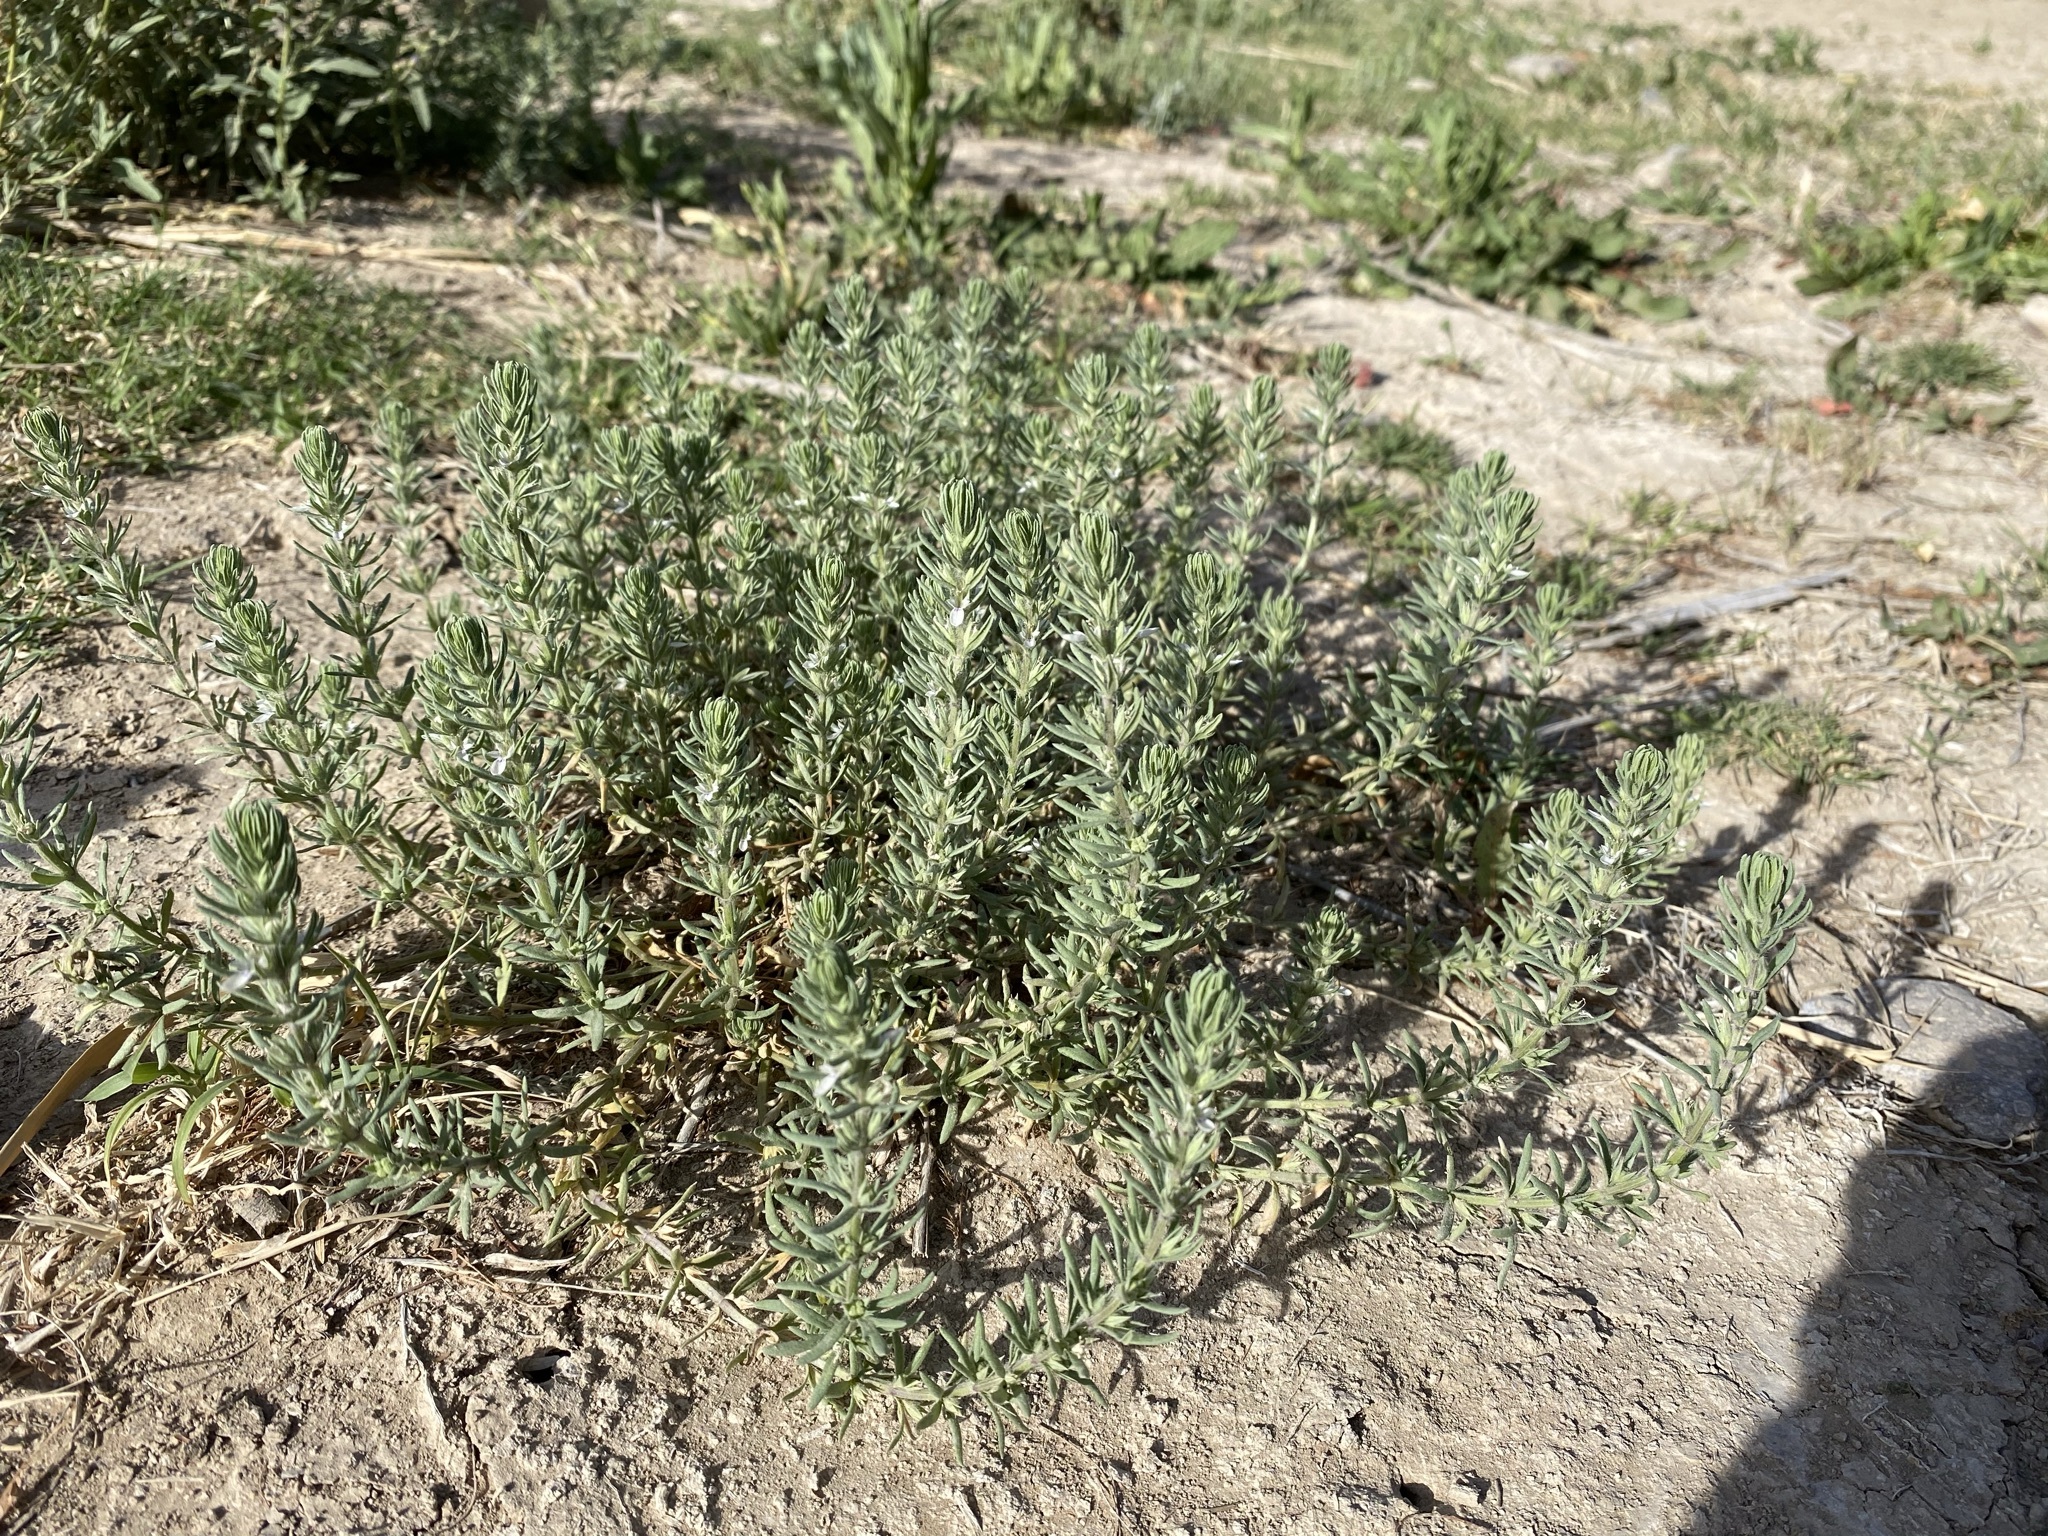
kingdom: Plantae
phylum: Tracheophyta
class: Magnoliopsida
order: Lamiales
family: Lamiaceae
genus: Teucrium
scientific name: Teucrium depressum
